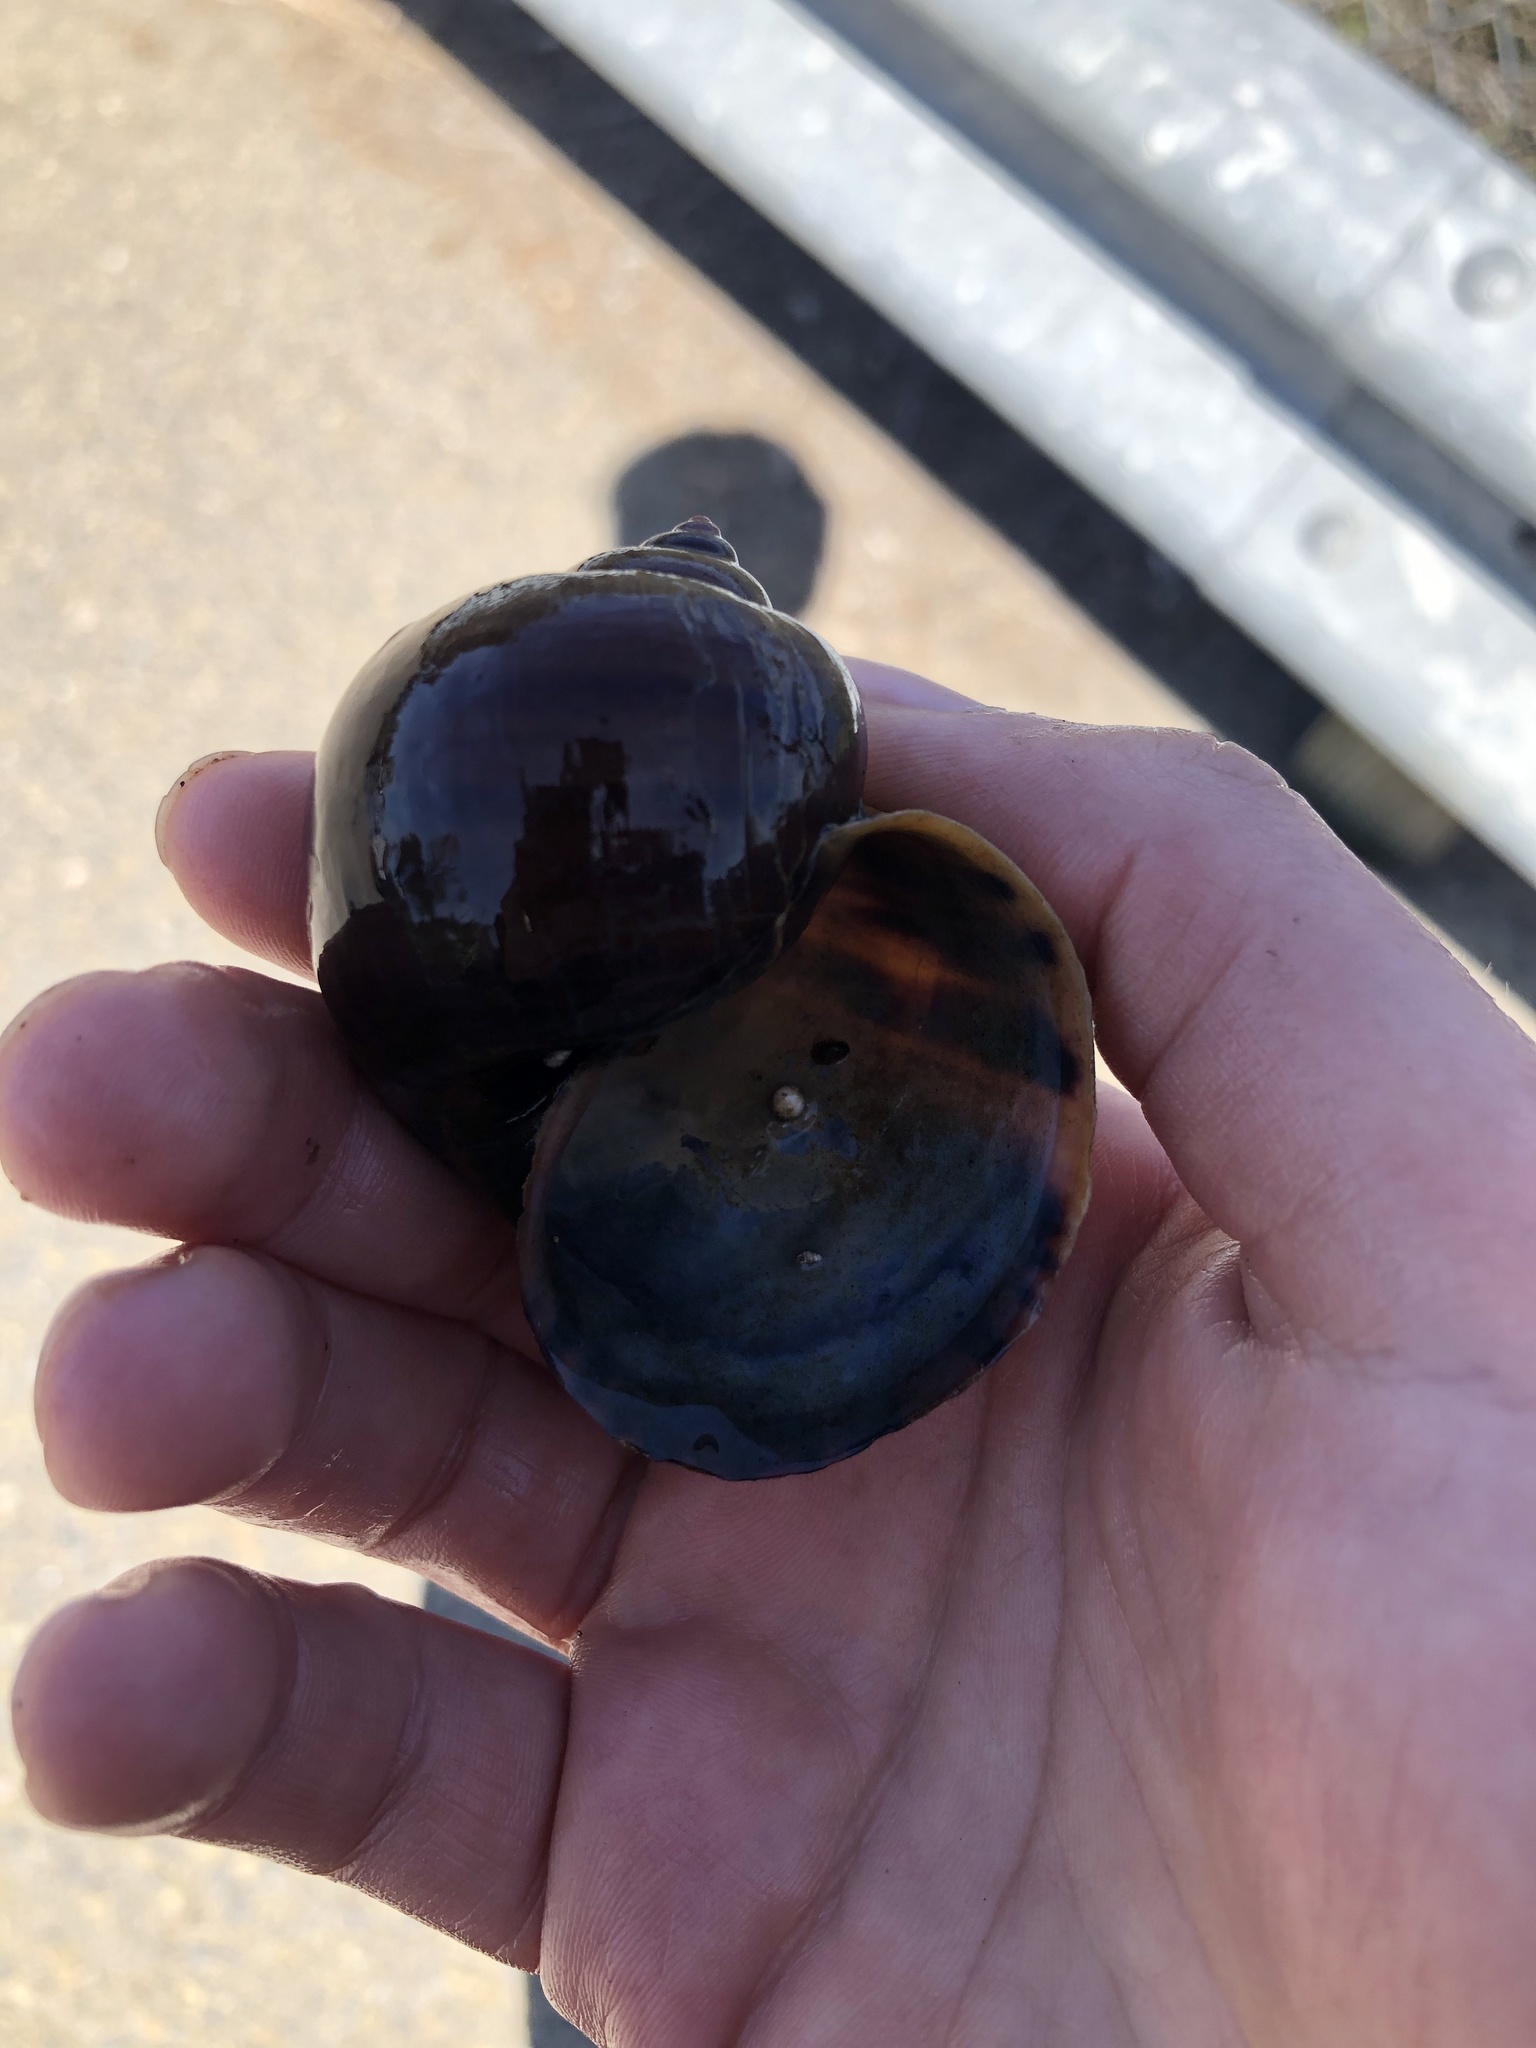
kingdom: Animalia
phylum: Mollusca
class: Gastropoda
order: Architaenioglossa
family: Ampullariidae
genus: Pomacea
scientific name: Pomacea canaliculata
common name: Channeled applesnail
